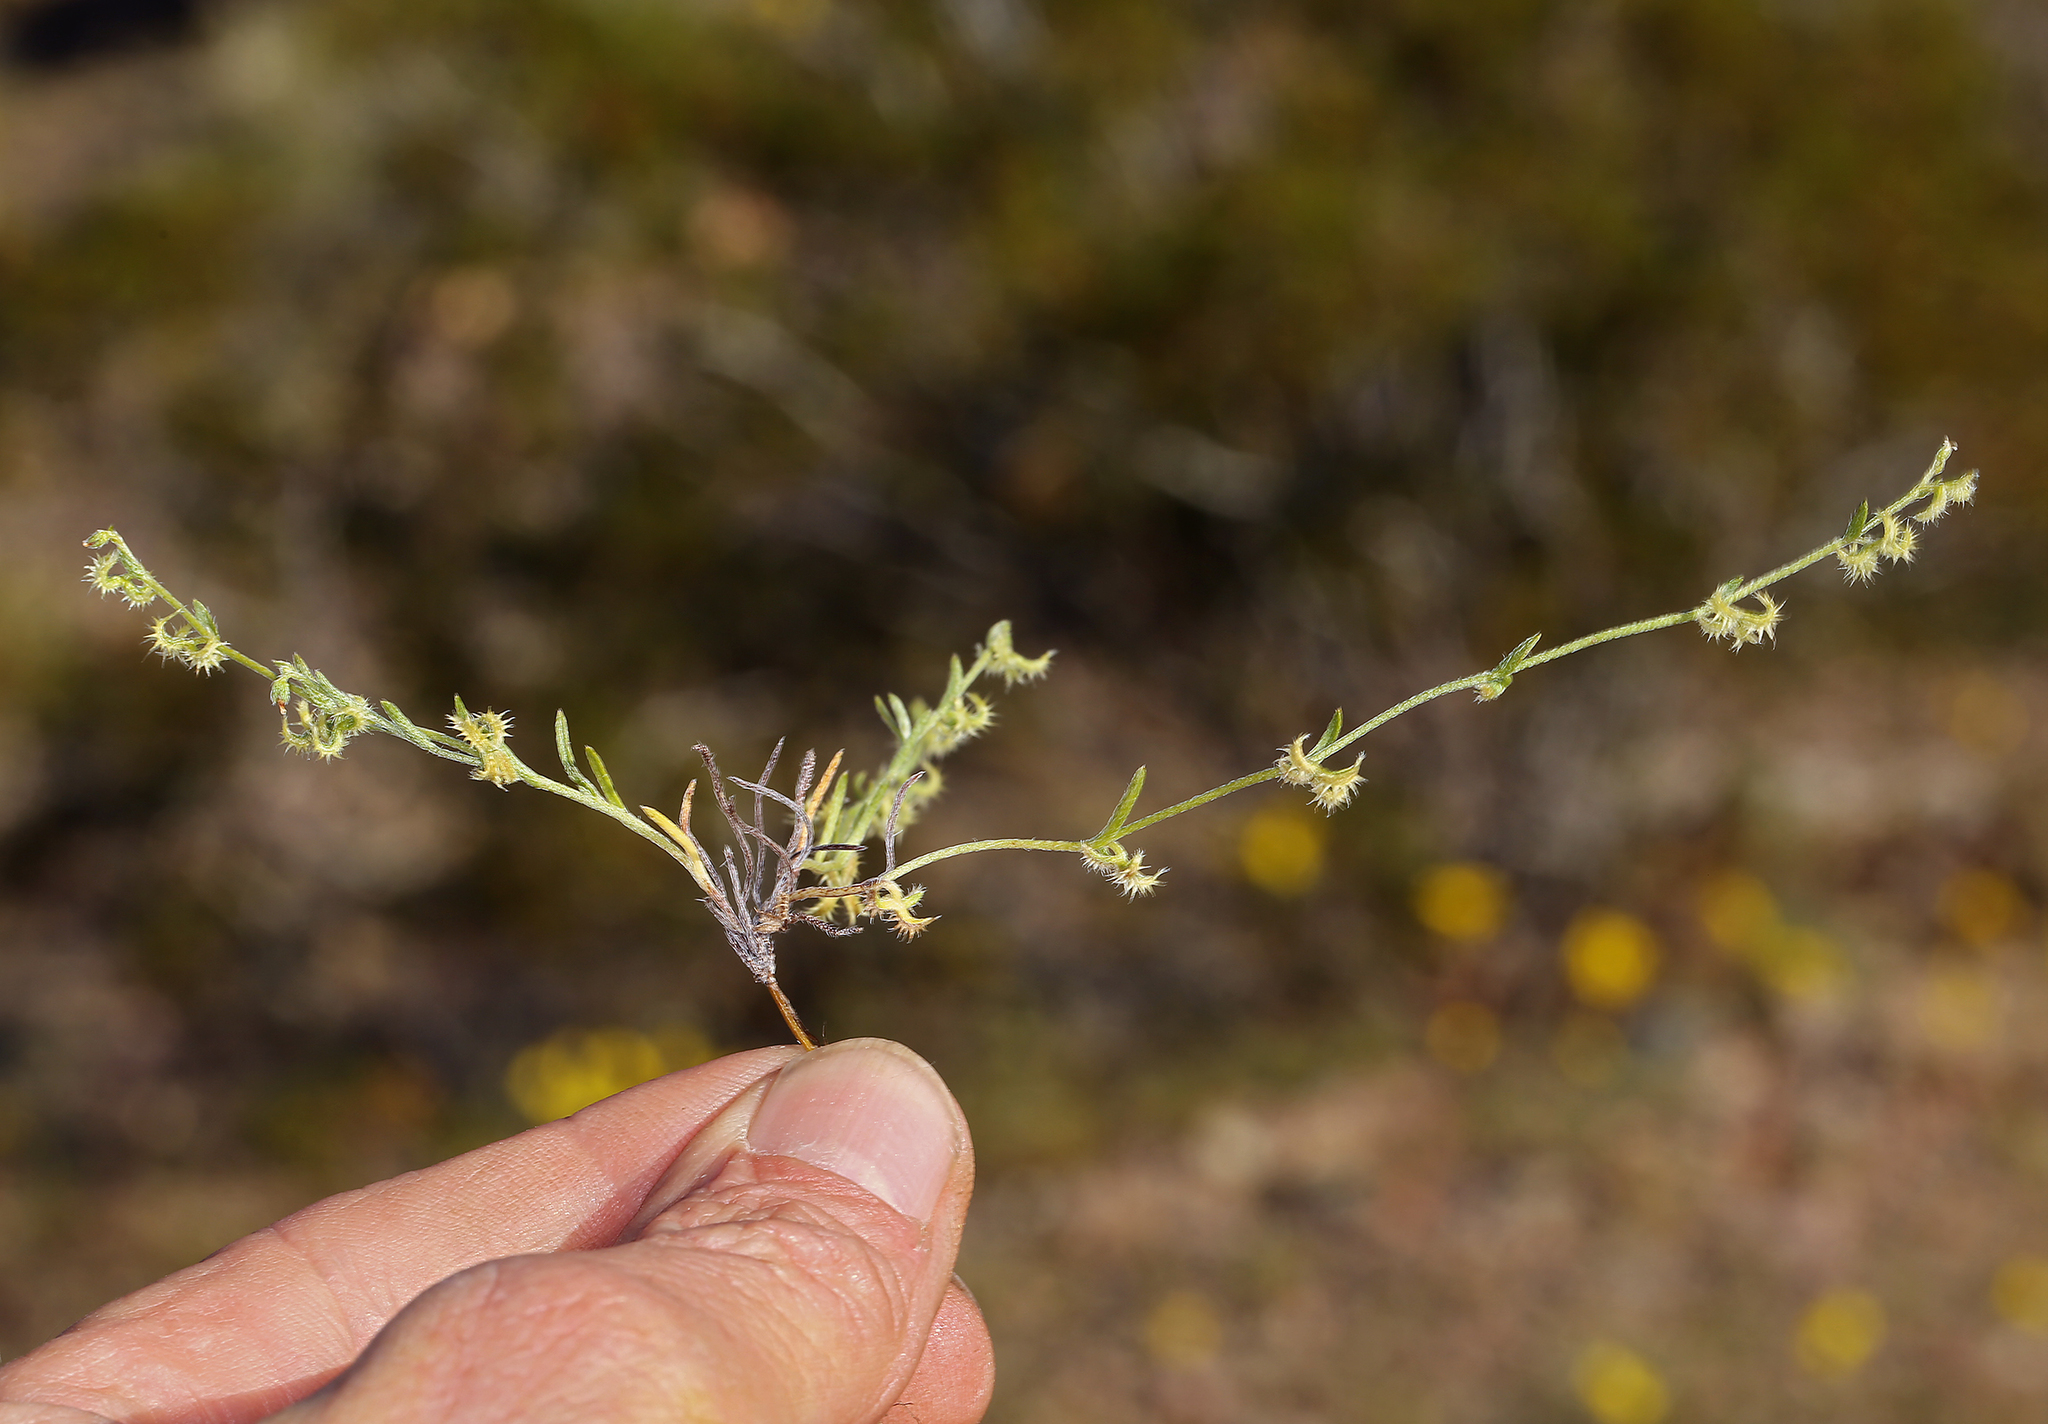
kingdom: Plantae
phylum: Tracheophyta
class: Magnoliopsida
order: Boraginales
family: Boraginaceae
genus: Pectocarya
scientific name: Pectocarya recurvata
